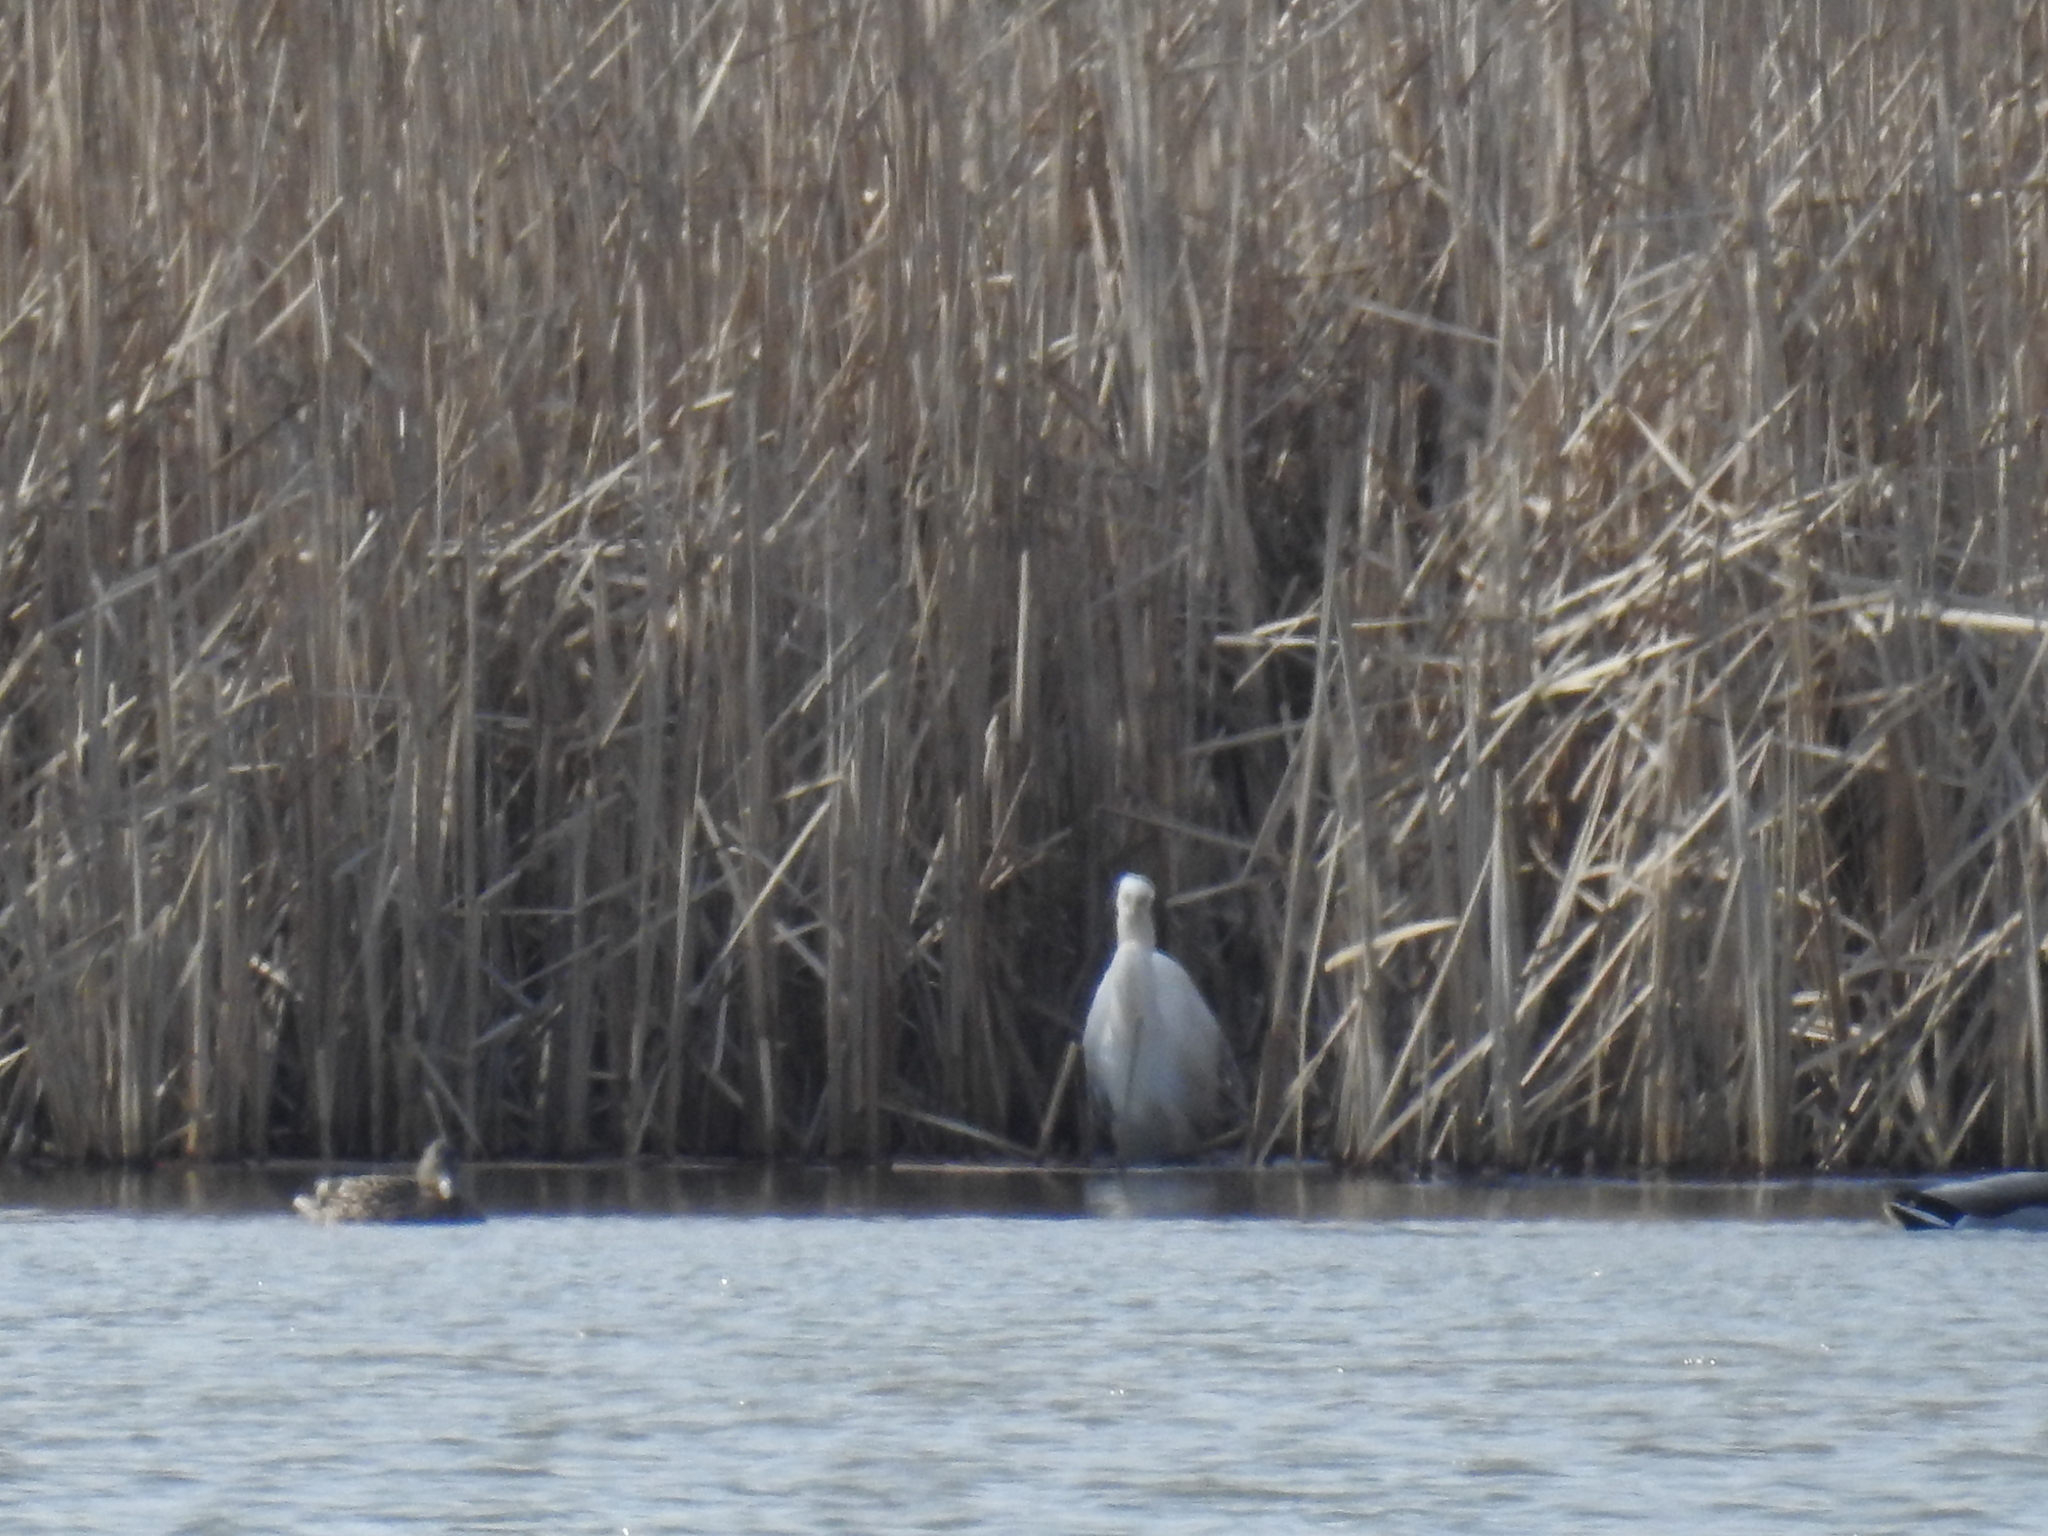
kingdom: Animalia
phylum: Chordata
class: Aves
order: Pelecaniformes
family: Ardeidae
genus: Ardea
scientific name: Ardea alba
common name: Great egret
